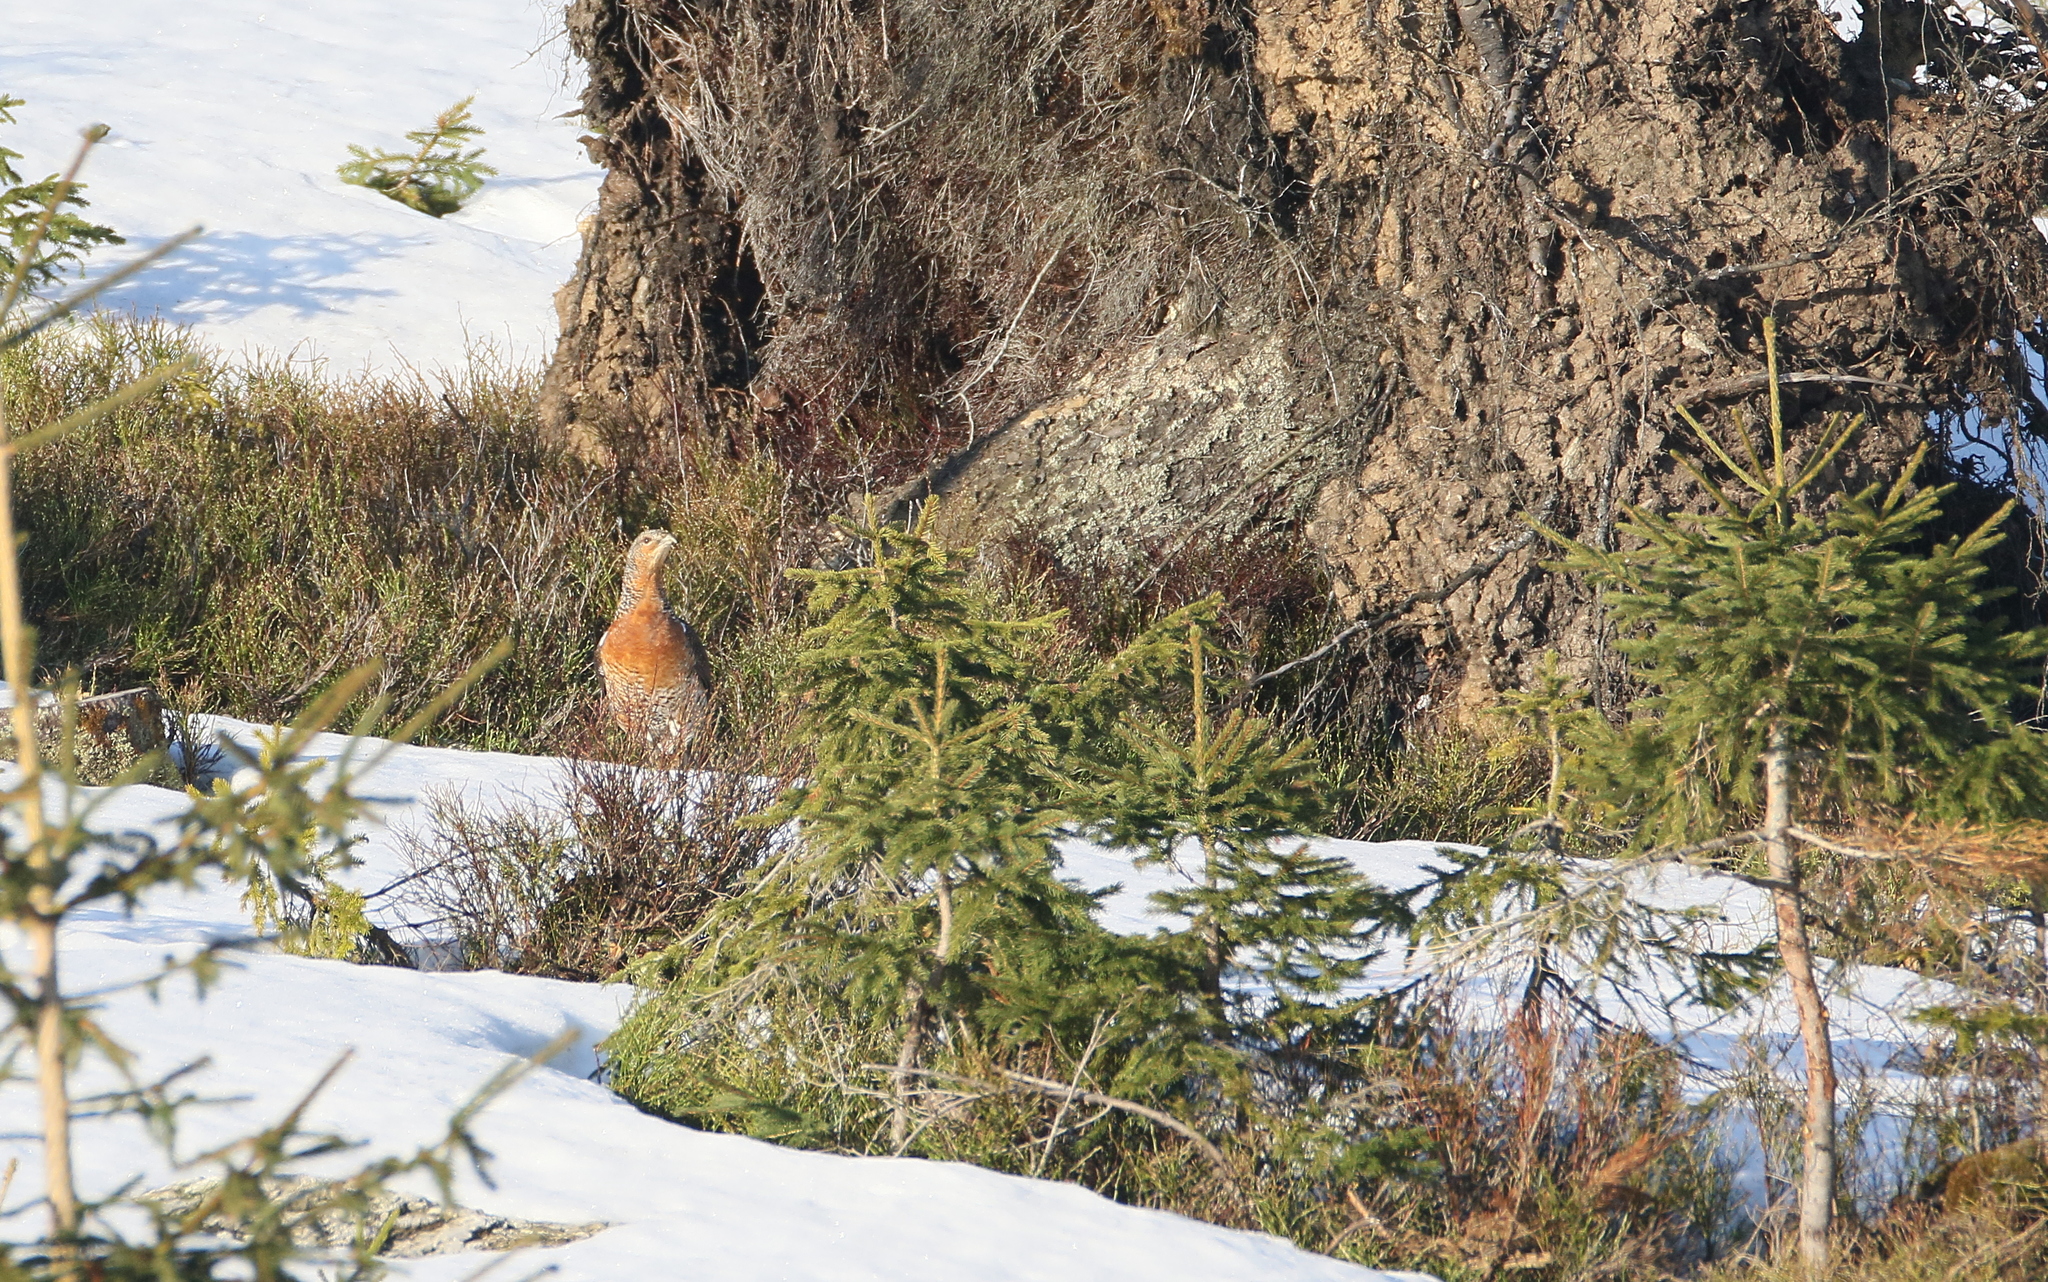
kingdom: Animalia
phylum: Chordata
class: Aves
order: Galliformes
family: Phasianidae
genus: Tetrao
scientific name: Tetrao urogallus
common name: Western capercaillie
